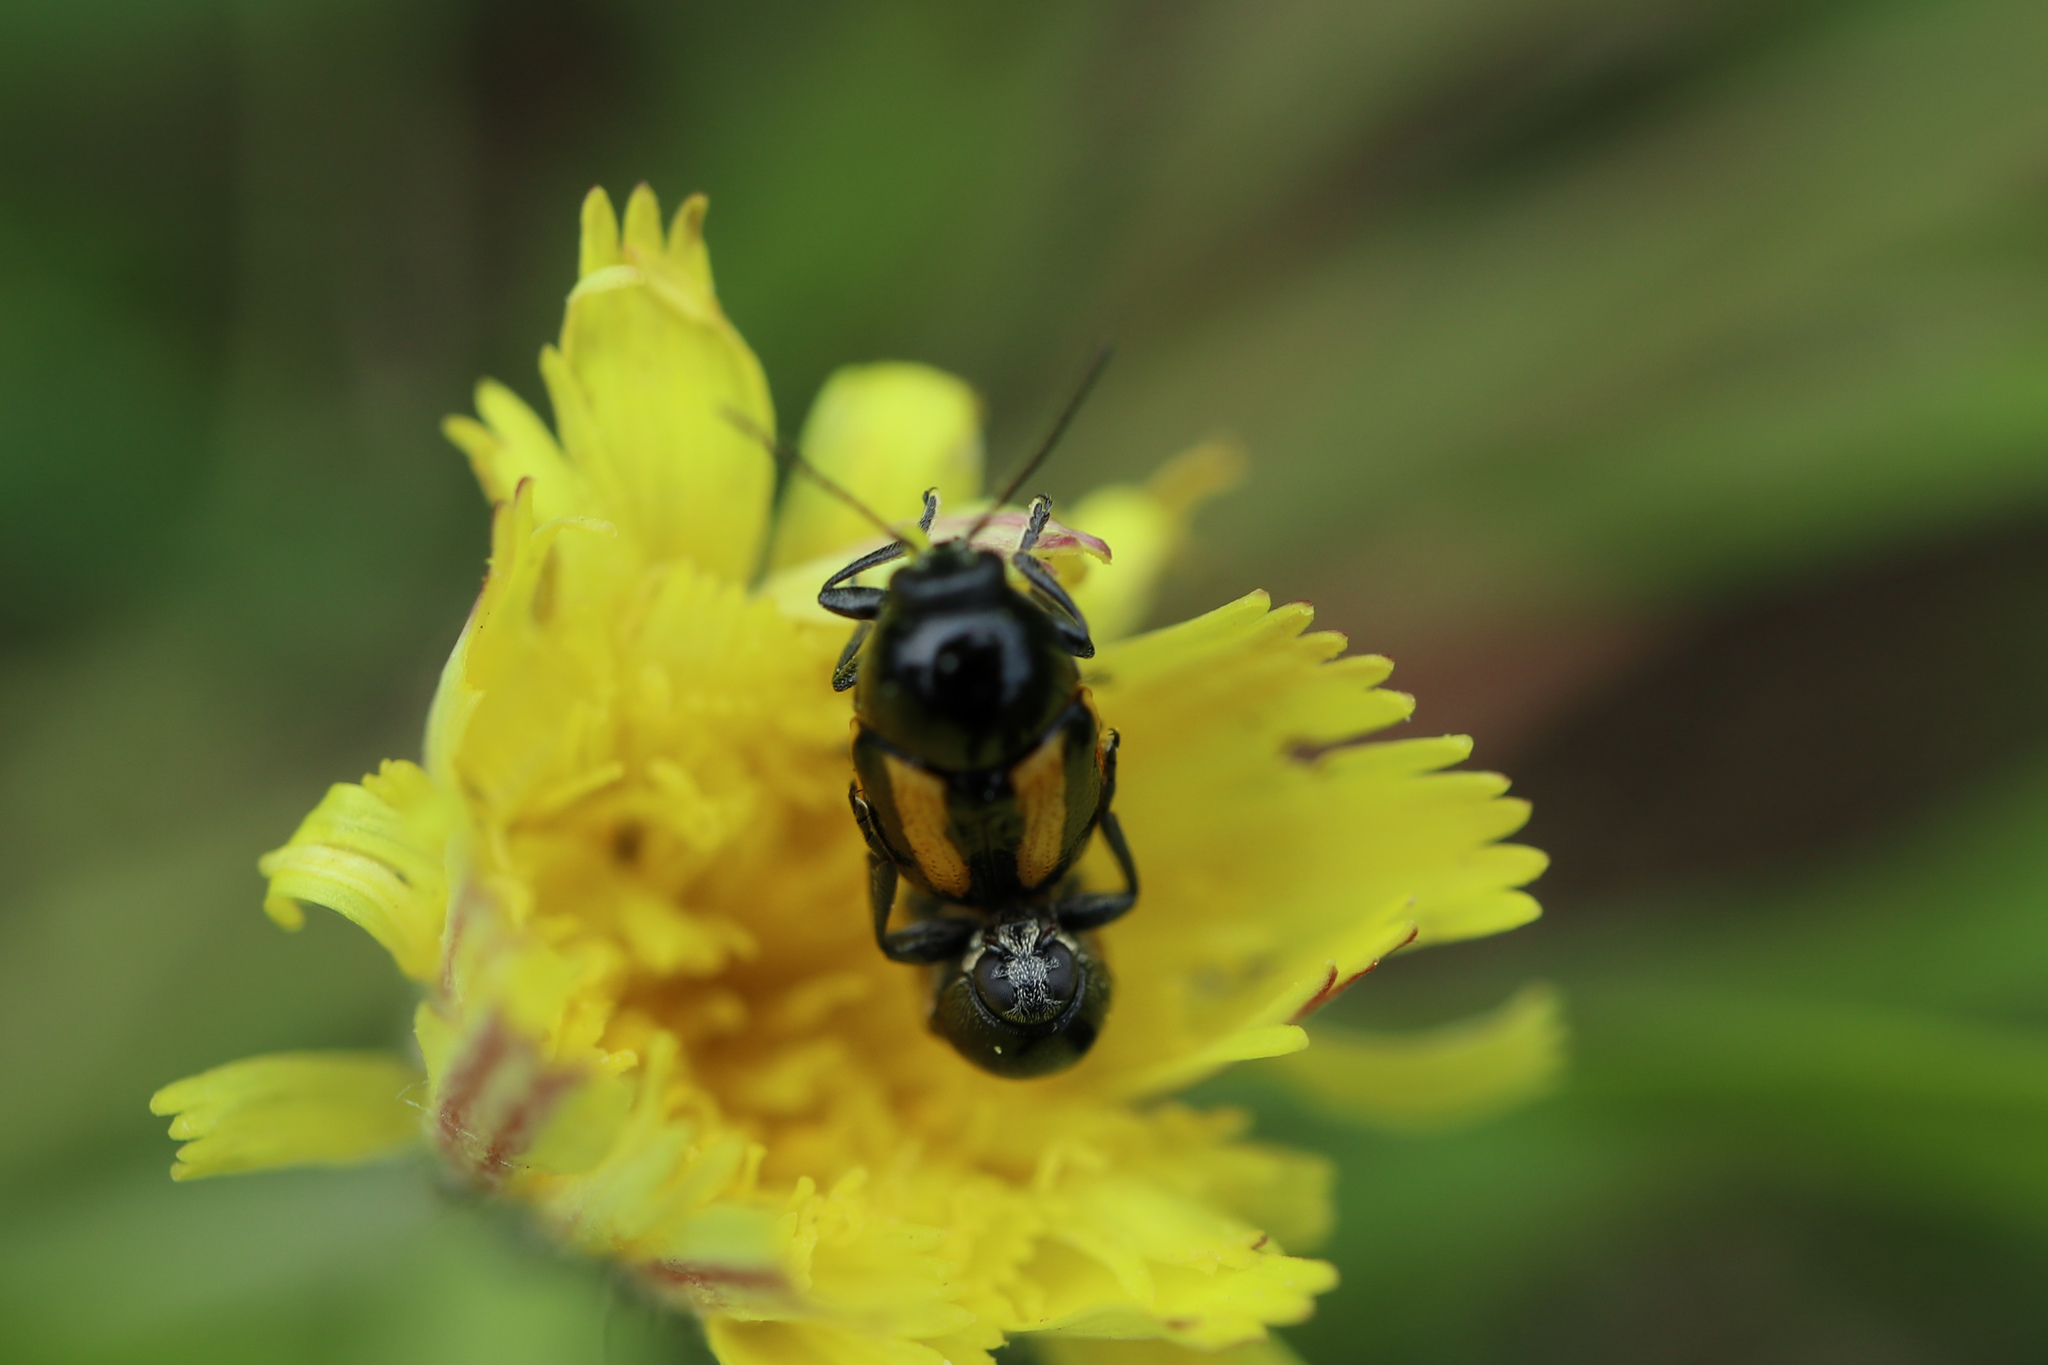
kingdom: Animalia
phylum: Arthropoda
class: Insecta
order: Coleoptera
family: Chrysomelidae
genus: Acalymma
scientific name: Acalymma vittatum
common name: Striped cucumber beetle
